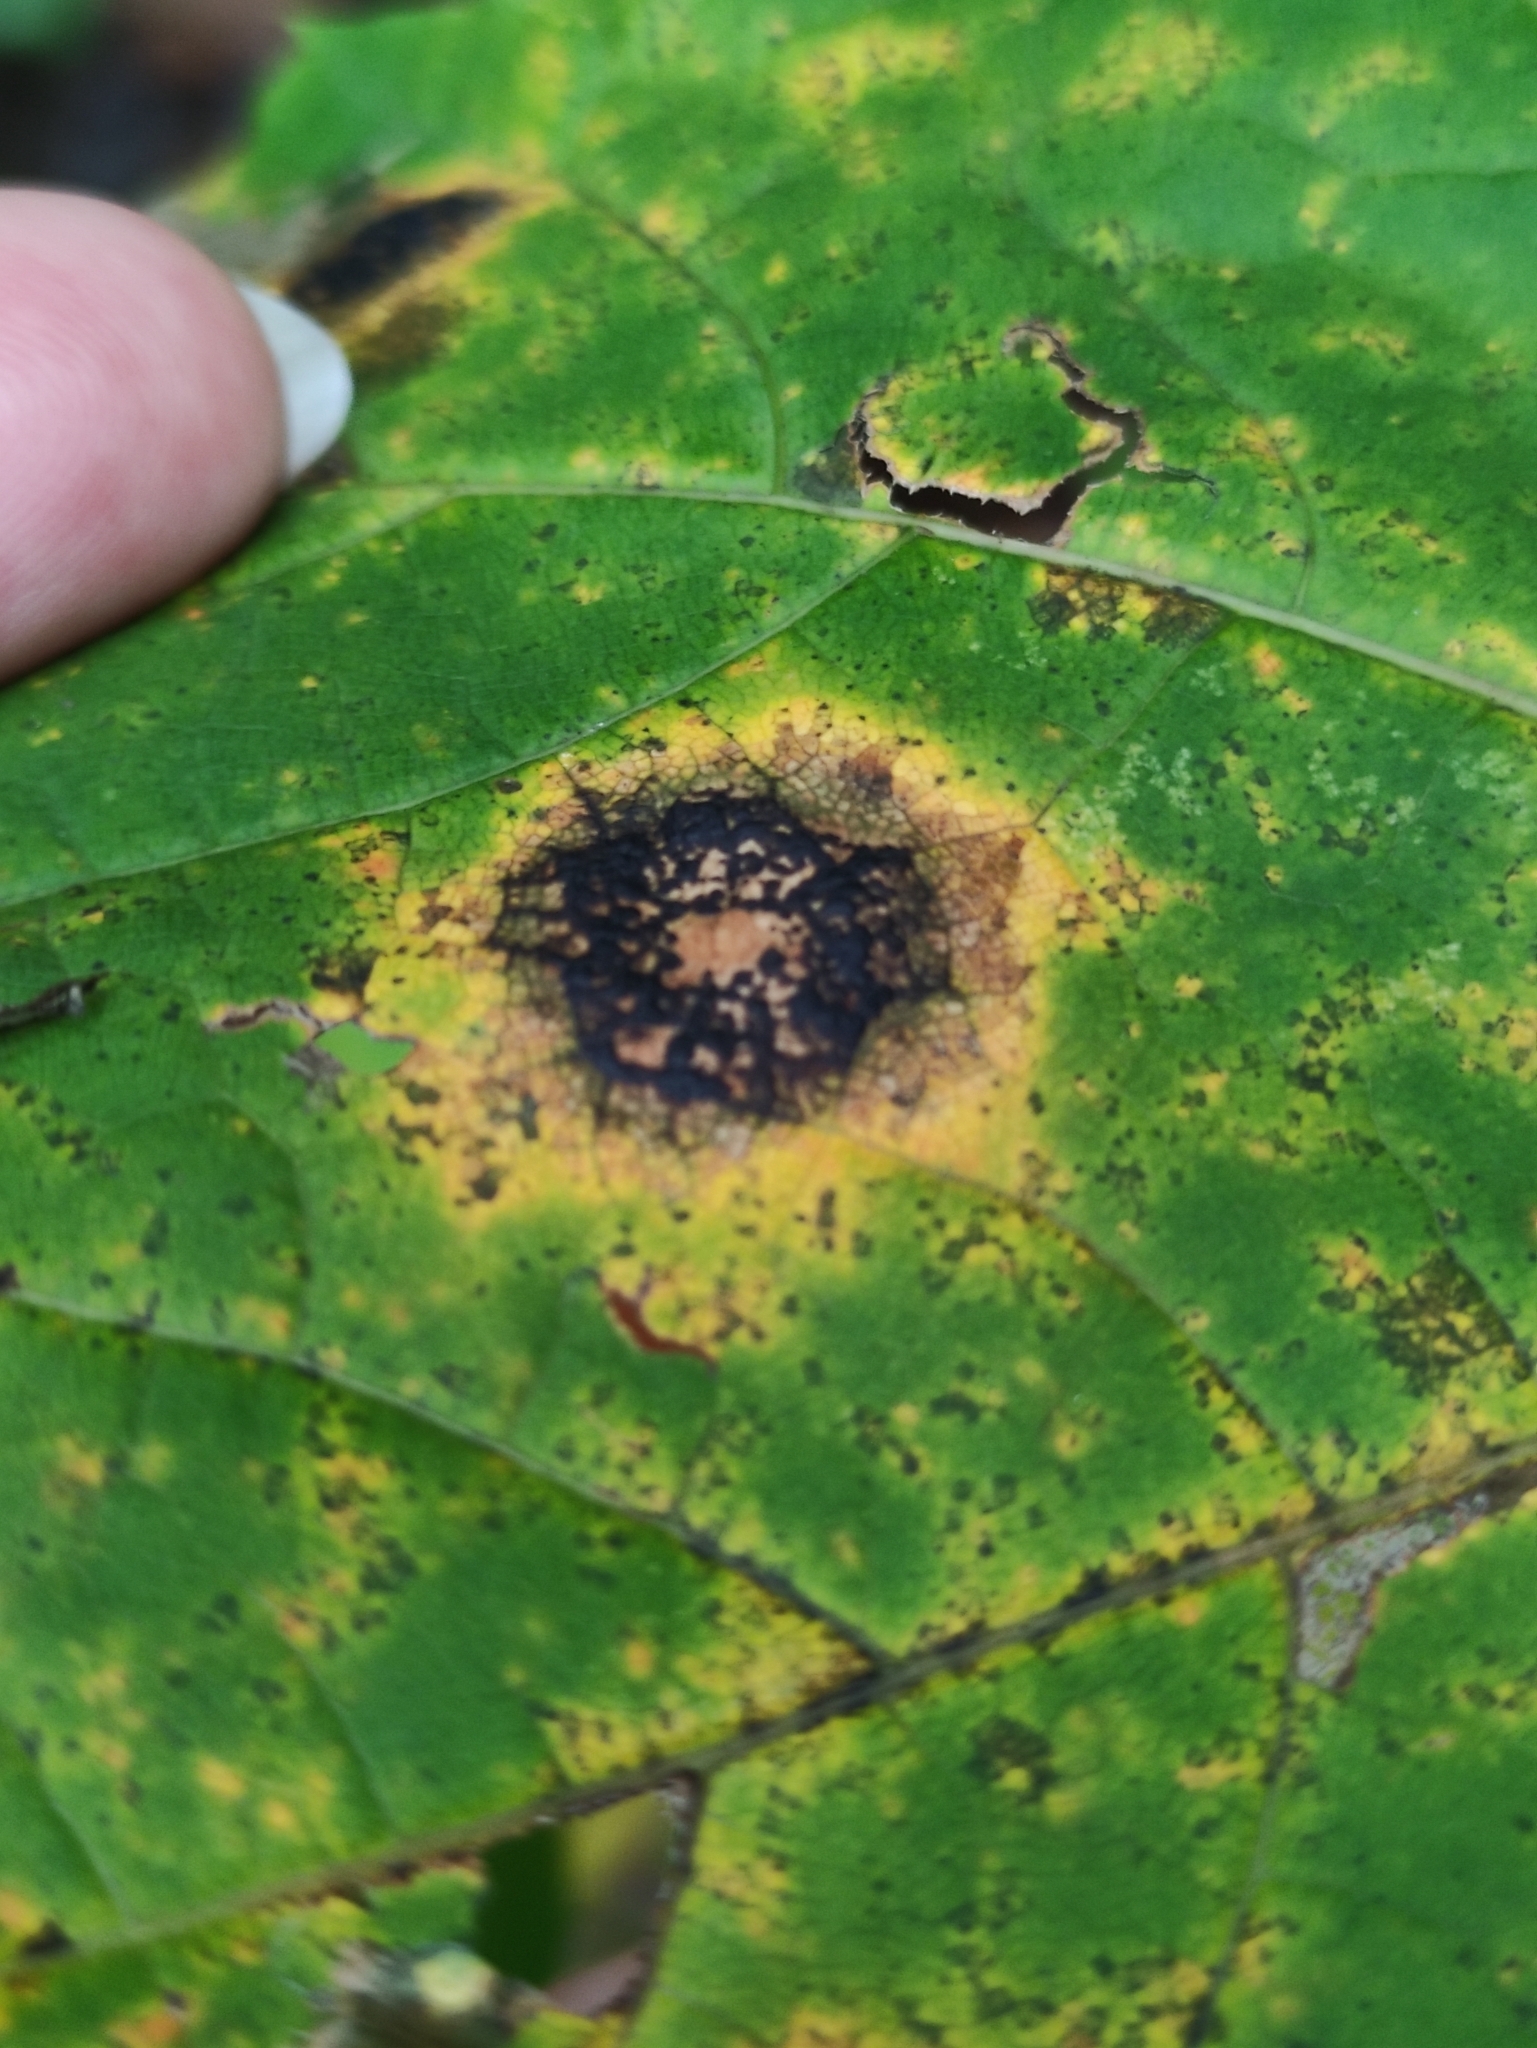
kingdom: Fungi
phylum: Ascomycota
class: Leotiomycetes
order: Rhytismatales
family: Rhytismataceae
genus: Rhytisma
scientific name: Rhytisma acerinum
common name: European tar spot
